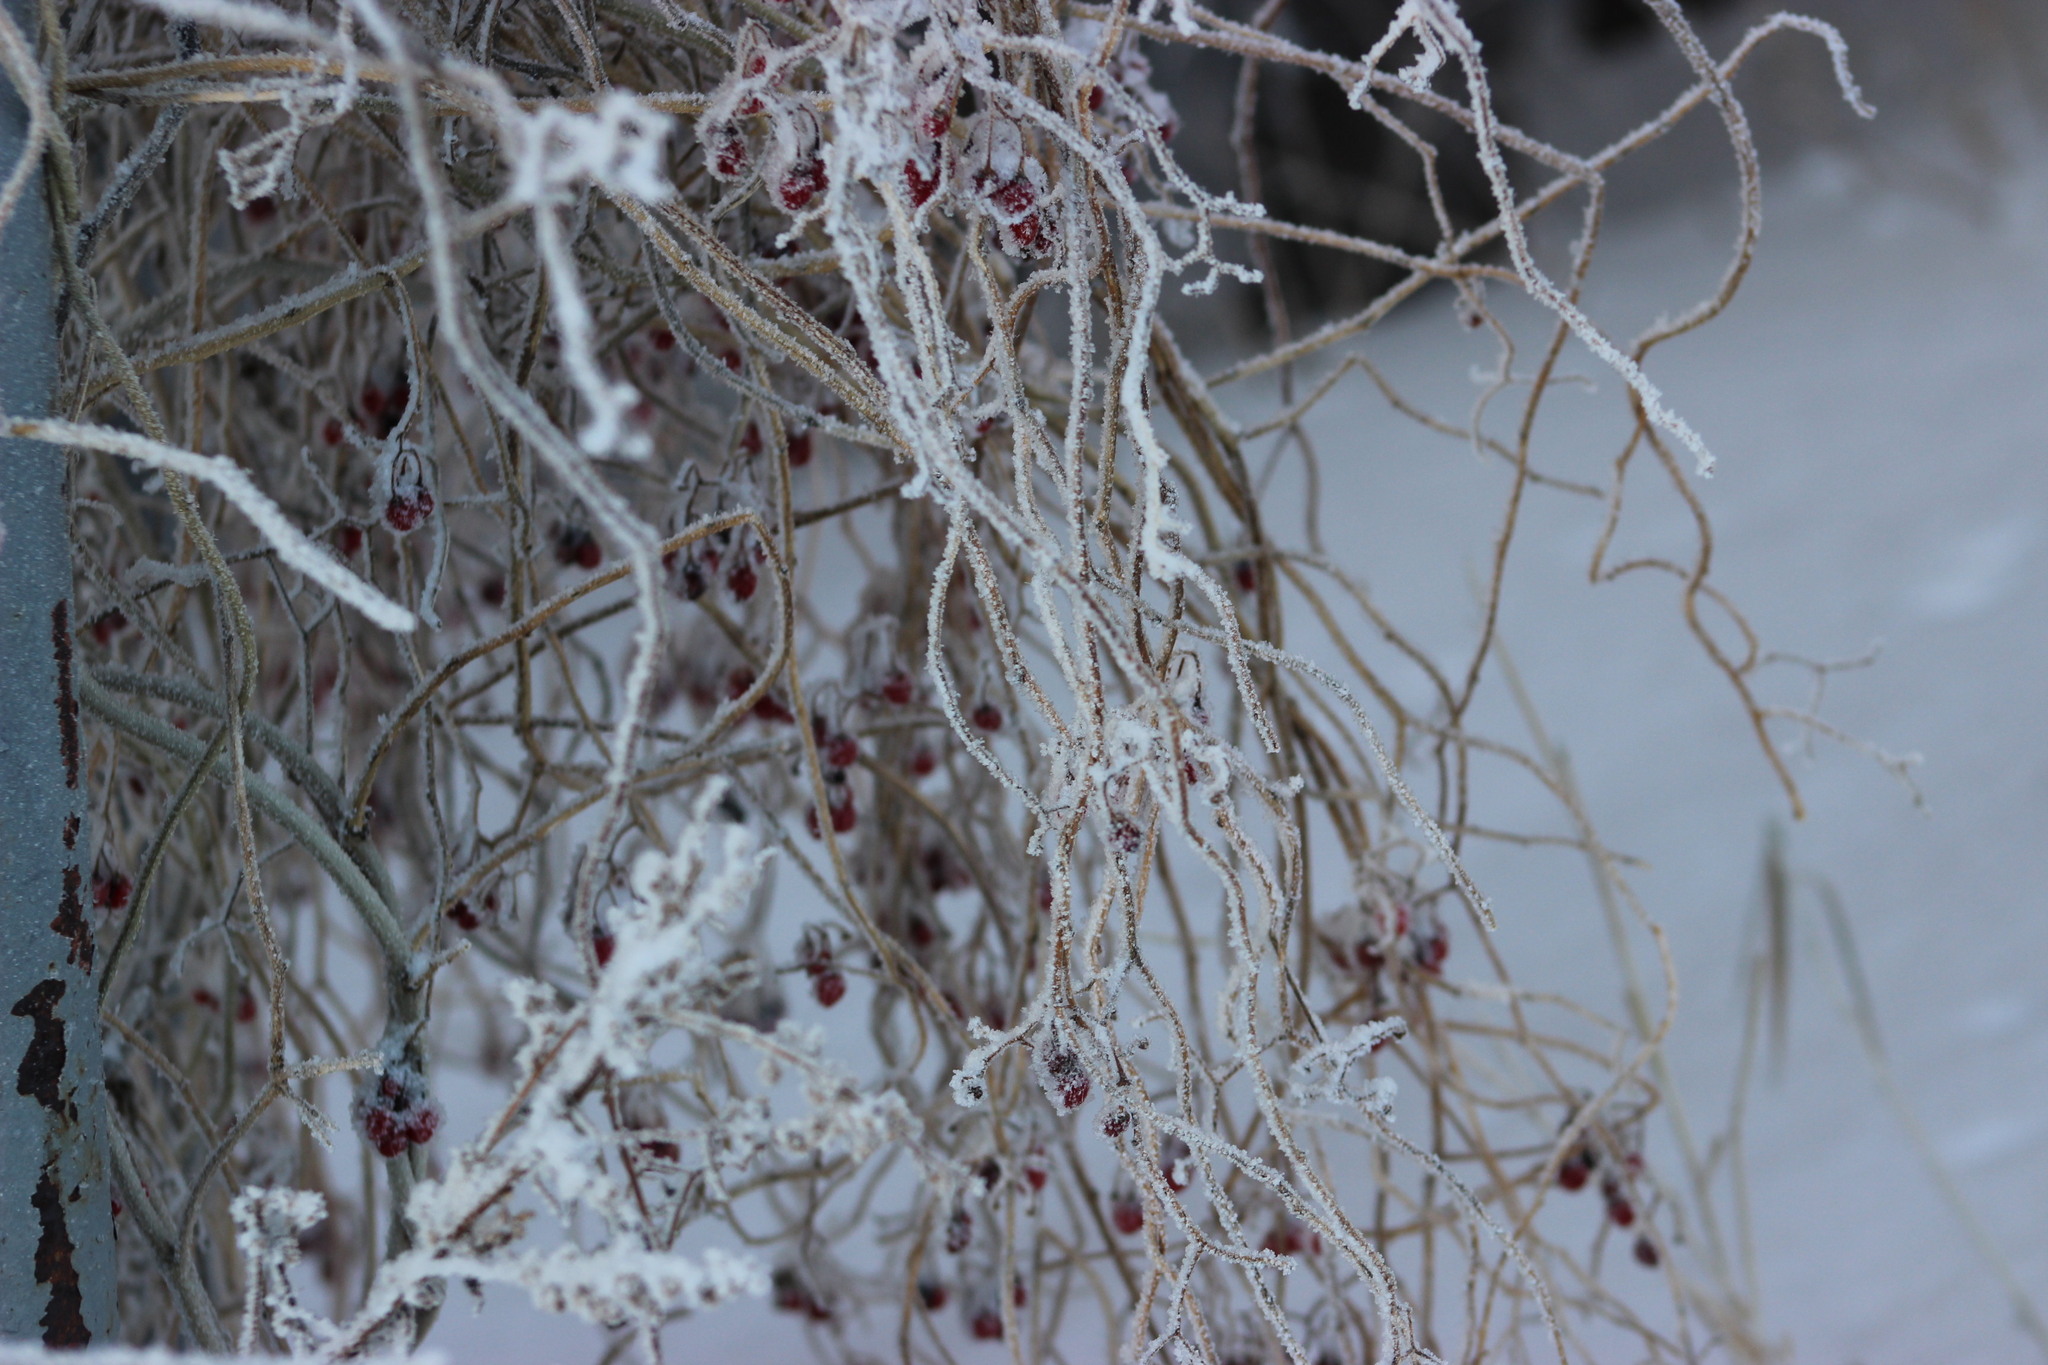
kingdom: Plantae
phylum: Tracheophyta
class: Magnoliopsida
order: Solanales
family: Solanaceae
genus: Solanum
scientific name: Solanum dulcamara
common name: Climbing nightshade
